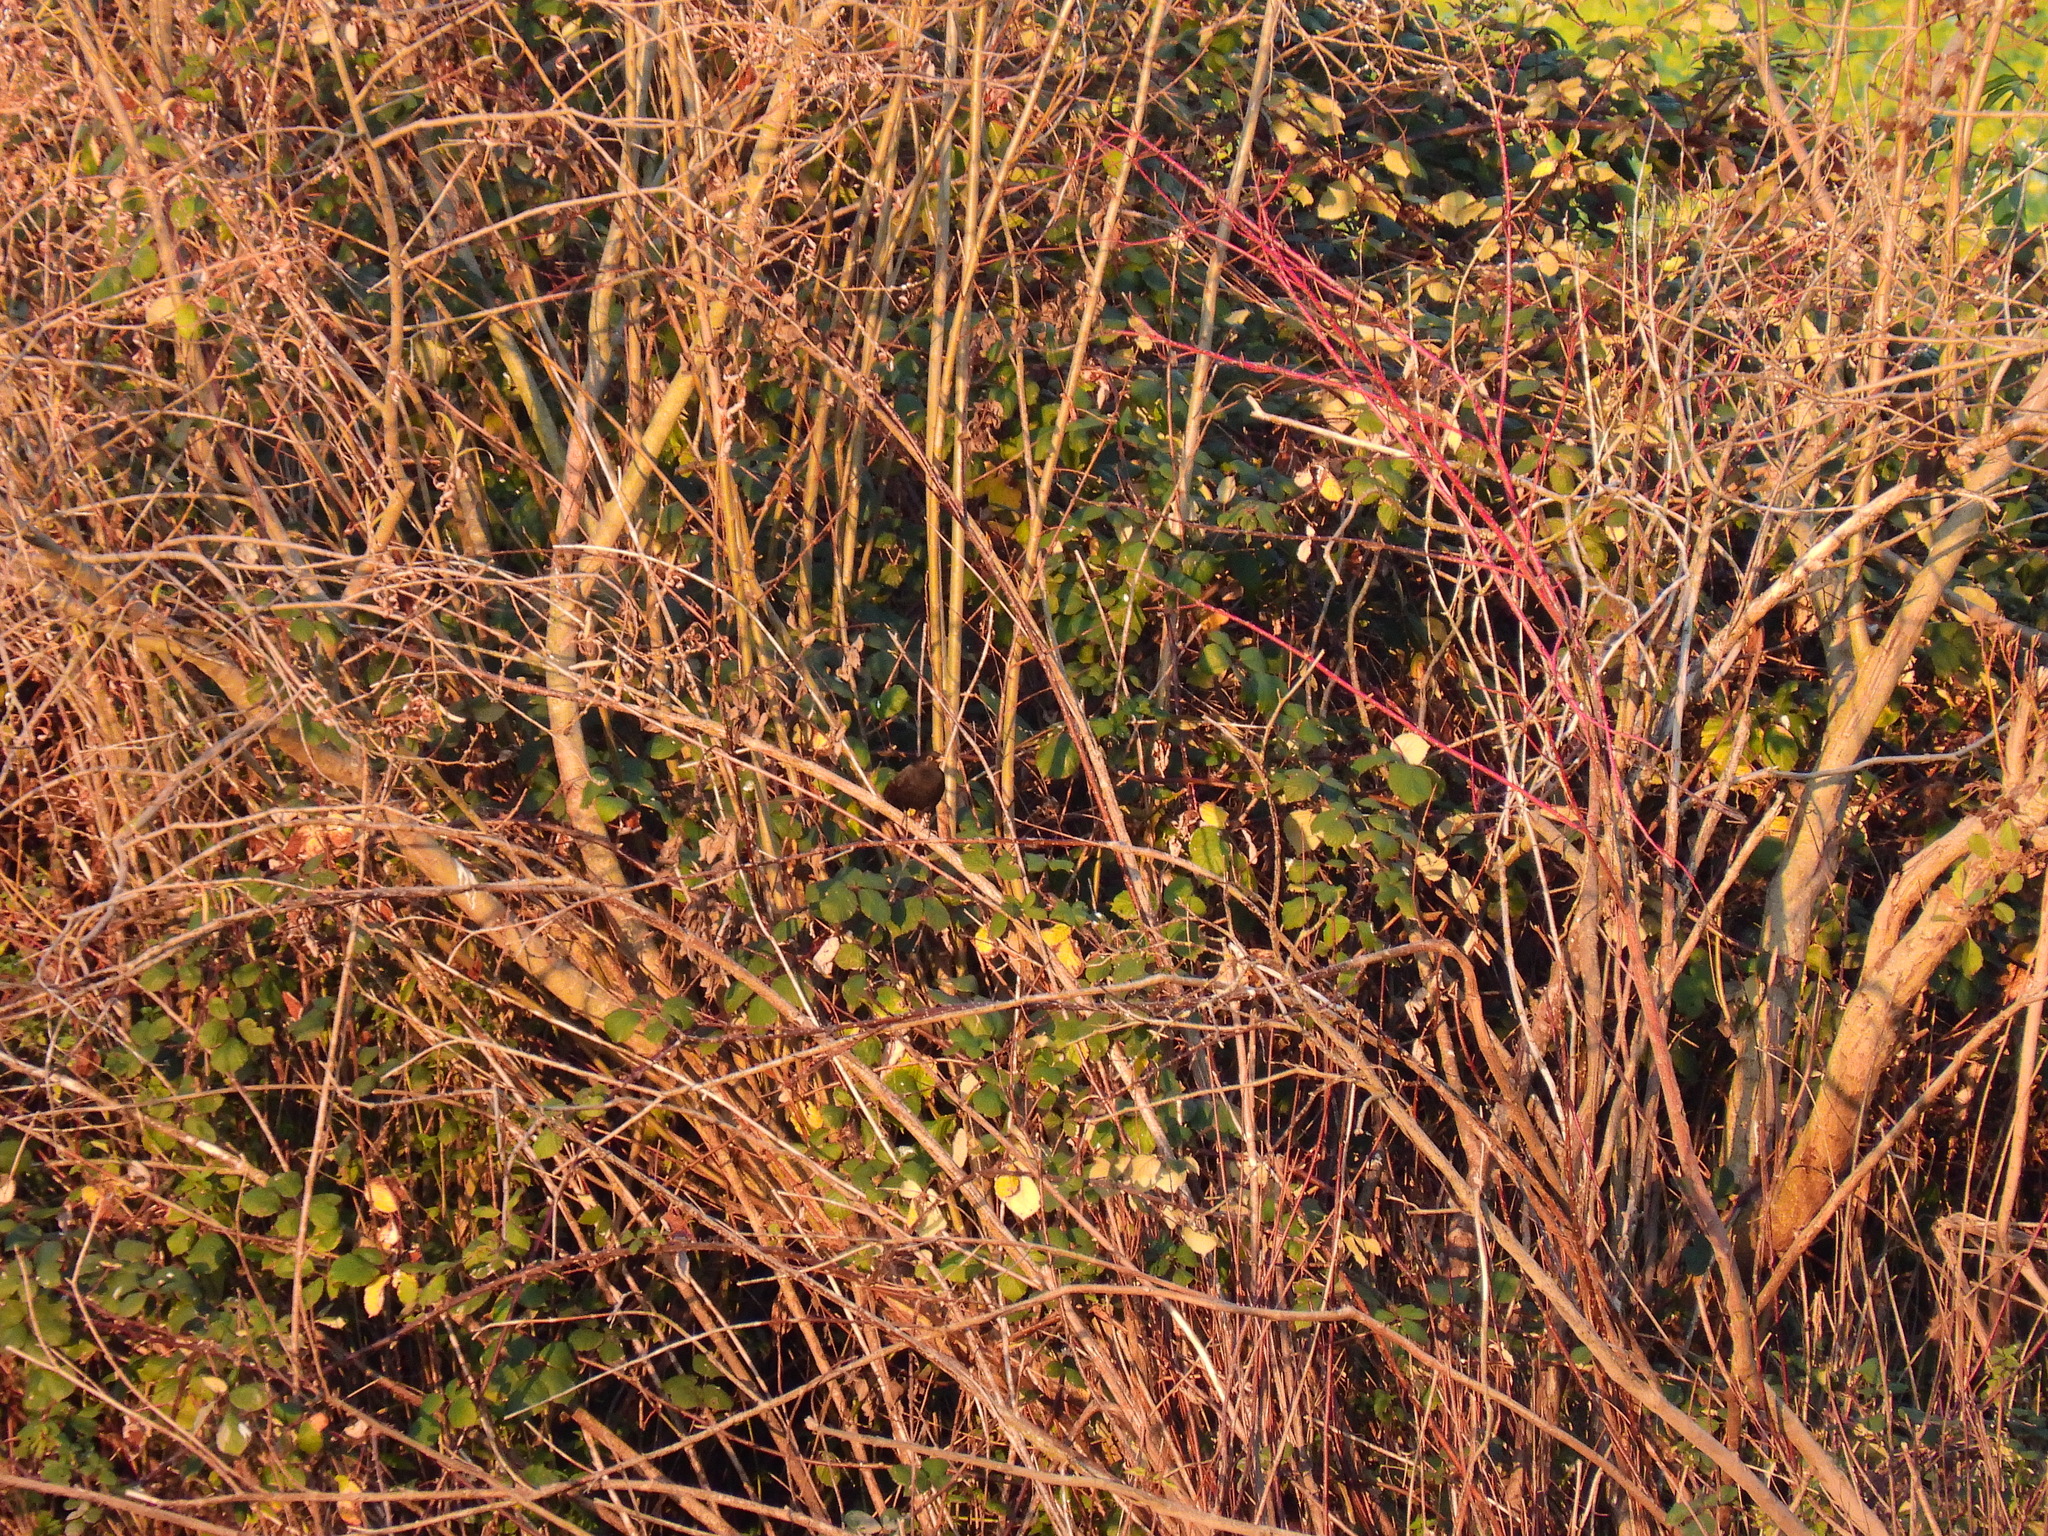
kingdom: Animalia
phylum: Chordata
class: Aves
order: Passeriformes
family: Turdidae
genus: Turdus
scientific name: Turdus merula
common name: Common blackbird
